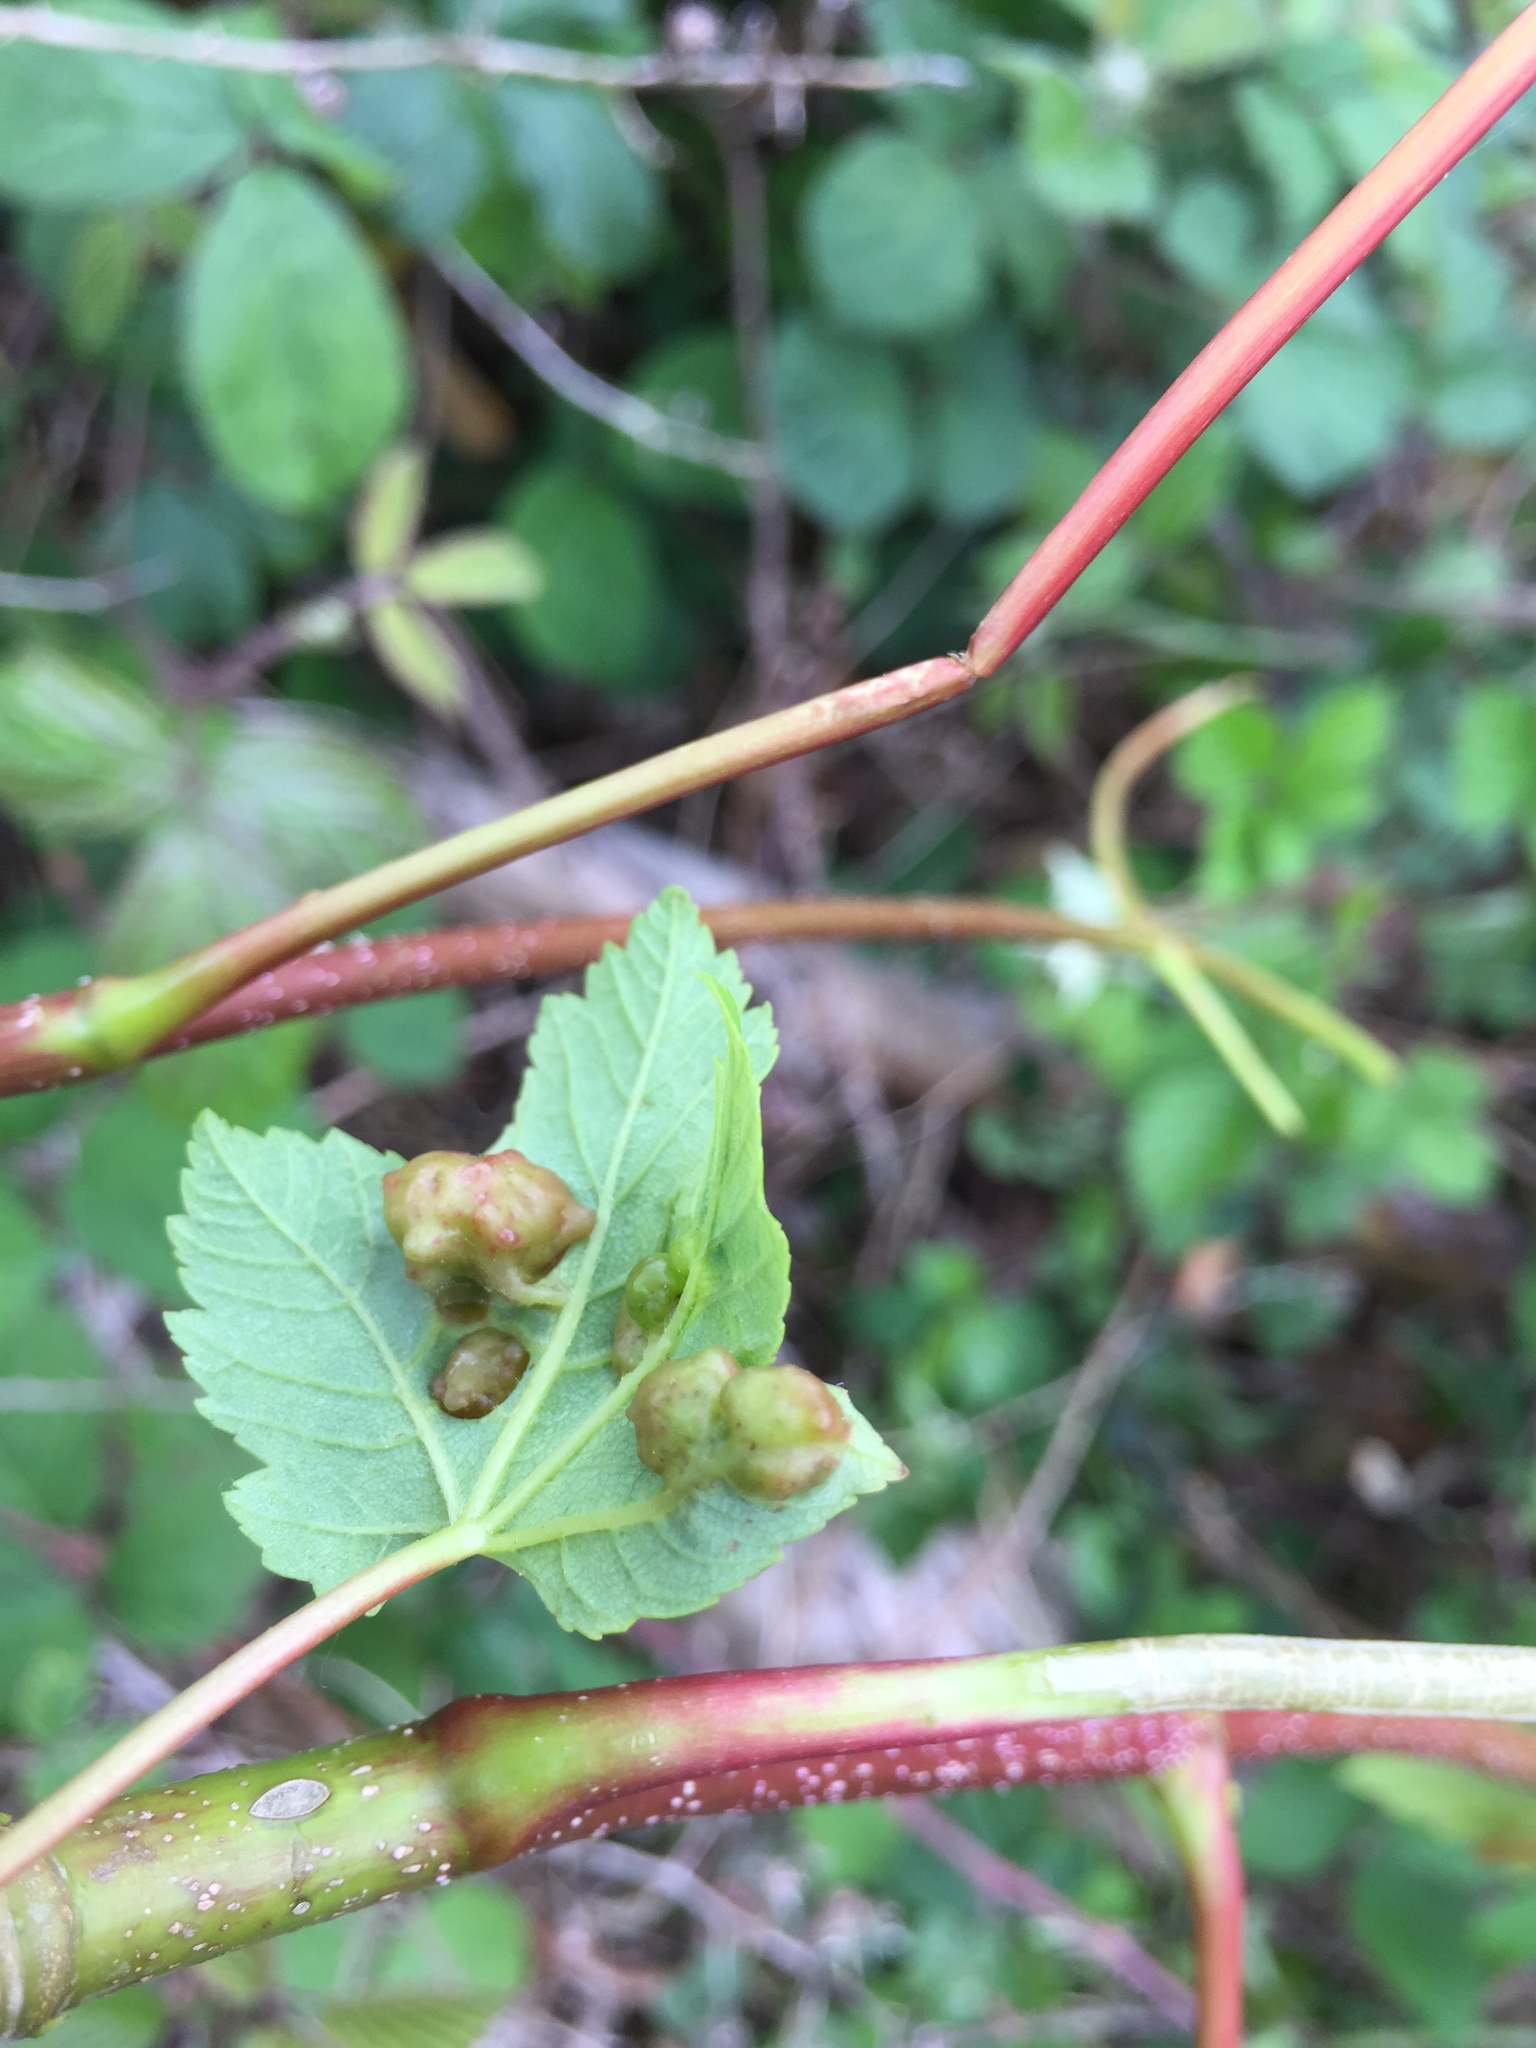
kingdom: Animalia
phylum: Arthropoda
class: Insecta
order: Hymenoptera
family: Eulophidae
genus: Dichatomus
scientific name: Dichatomus acerinus
